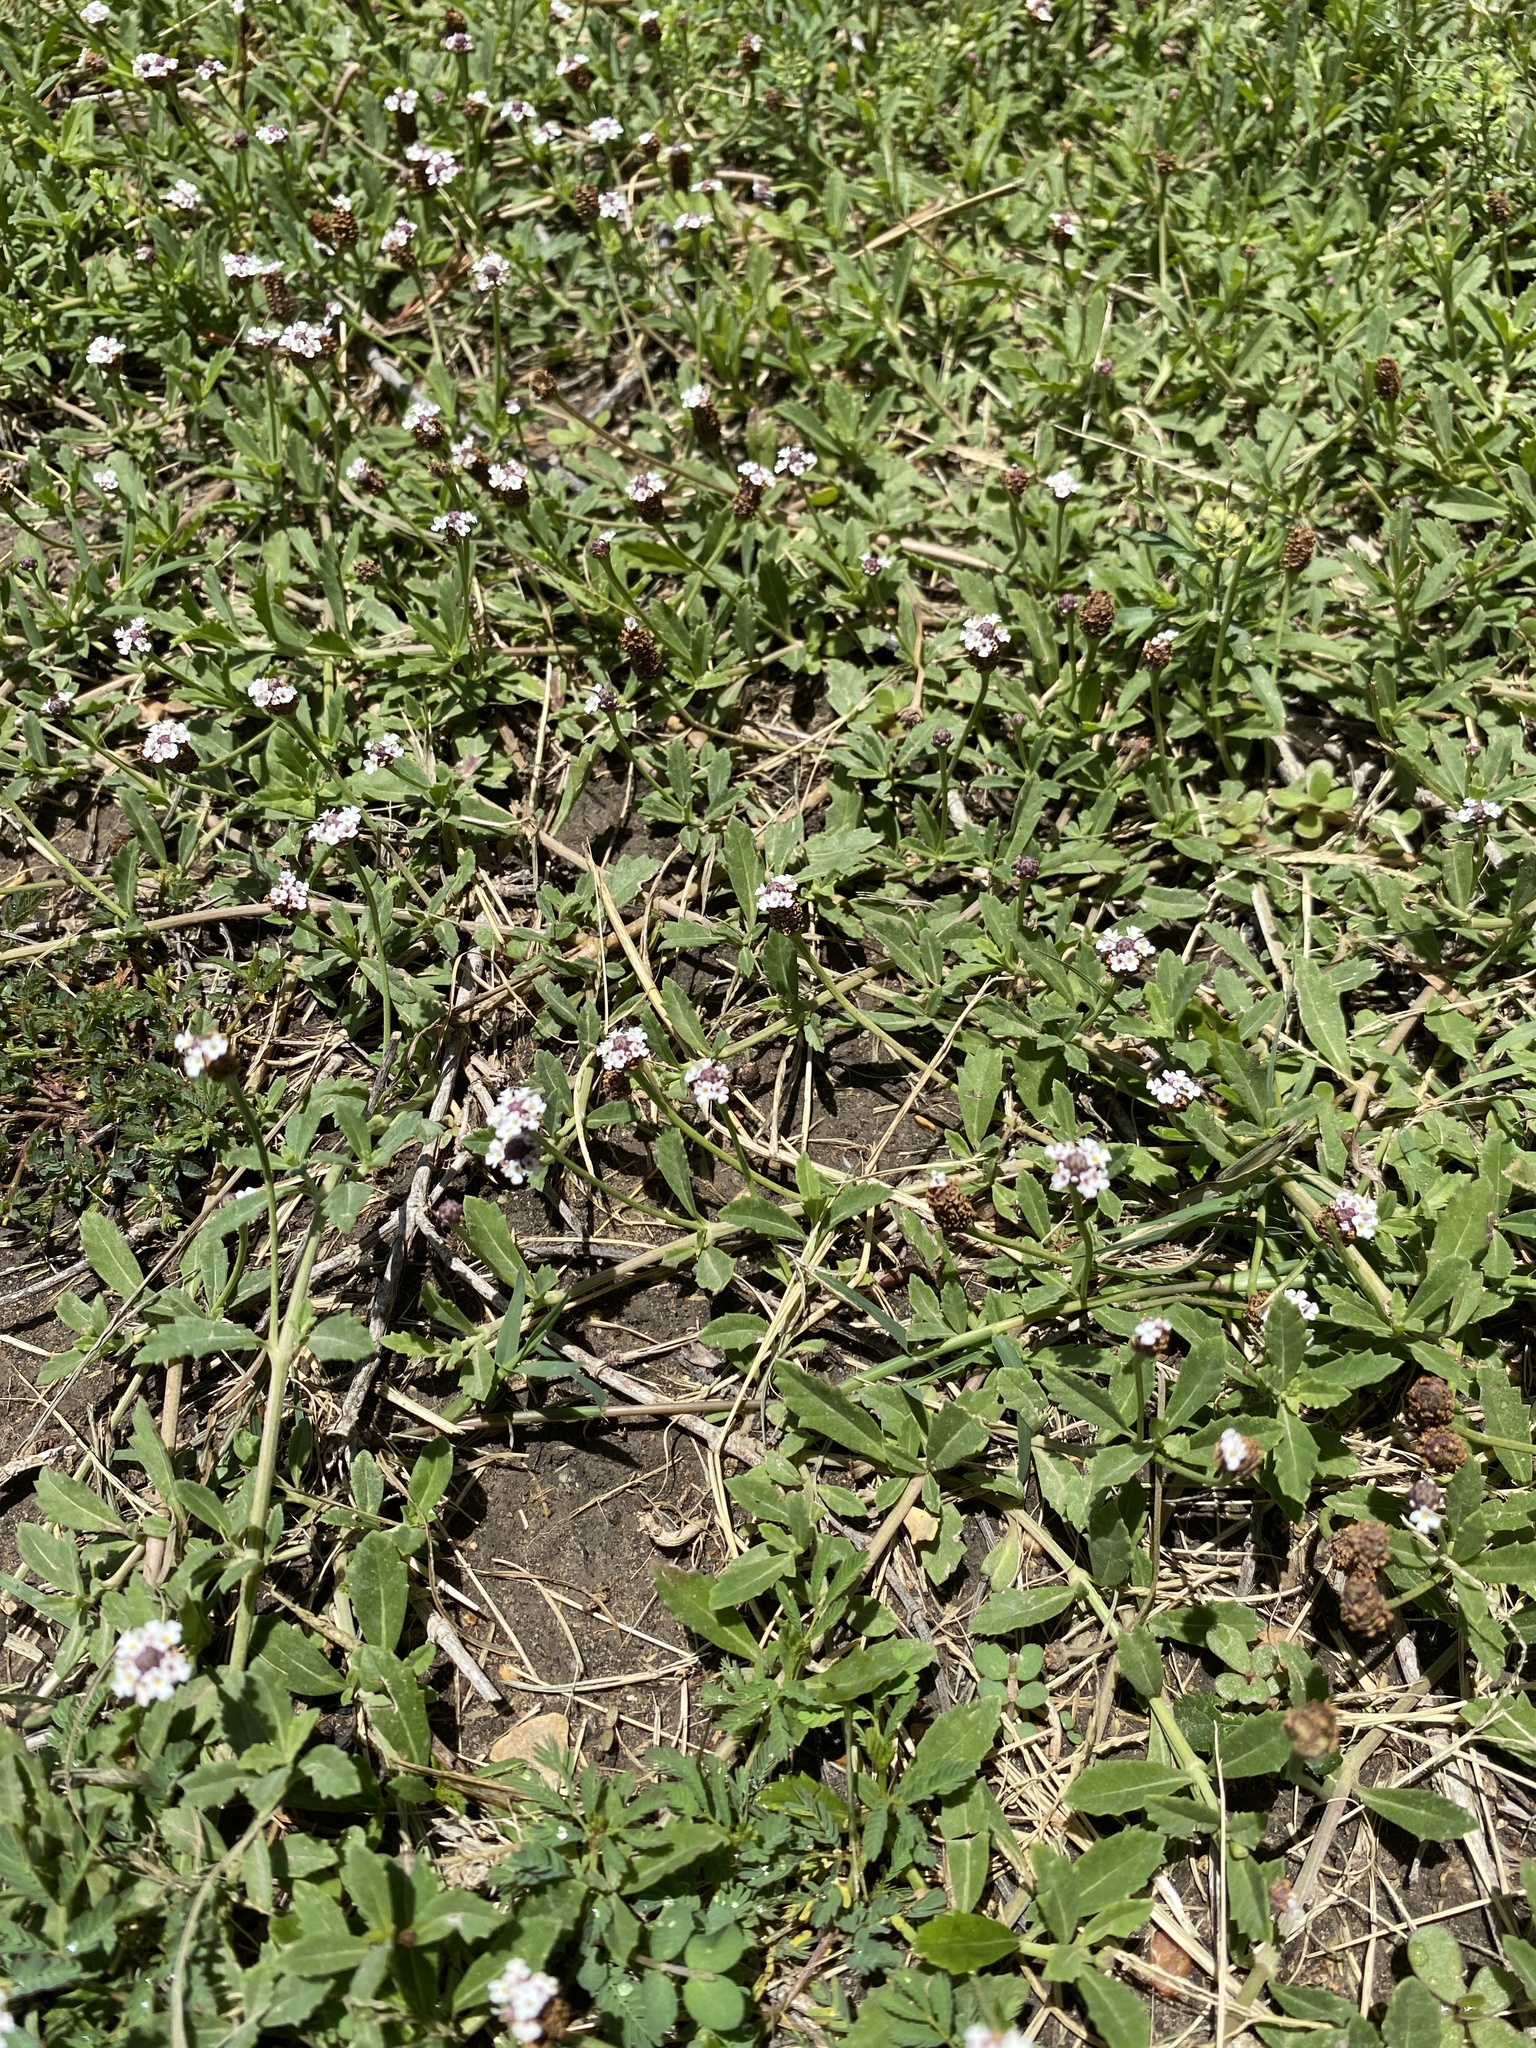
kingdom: Plantae
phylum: Tracheophyta
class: Magnoliopsida
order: Lamiales
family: Verbenaceae
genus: Phyla
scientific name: Phyla nodiflora
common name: Frogfruit
